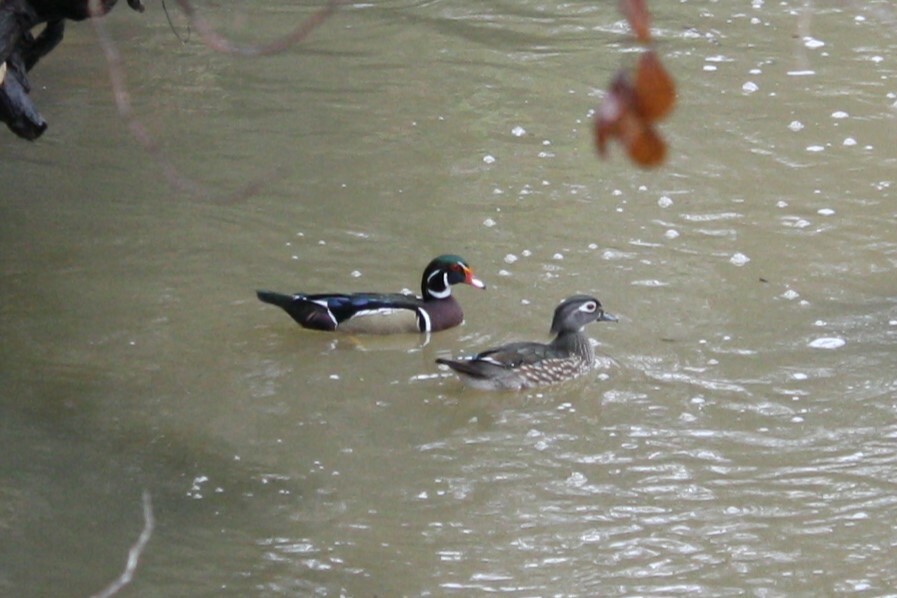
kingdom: Animalia
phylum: Chordata
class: Aves
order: Anseriformes
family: Anatidae
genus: Aix
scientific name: Aix sponsa
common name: Wood duck
